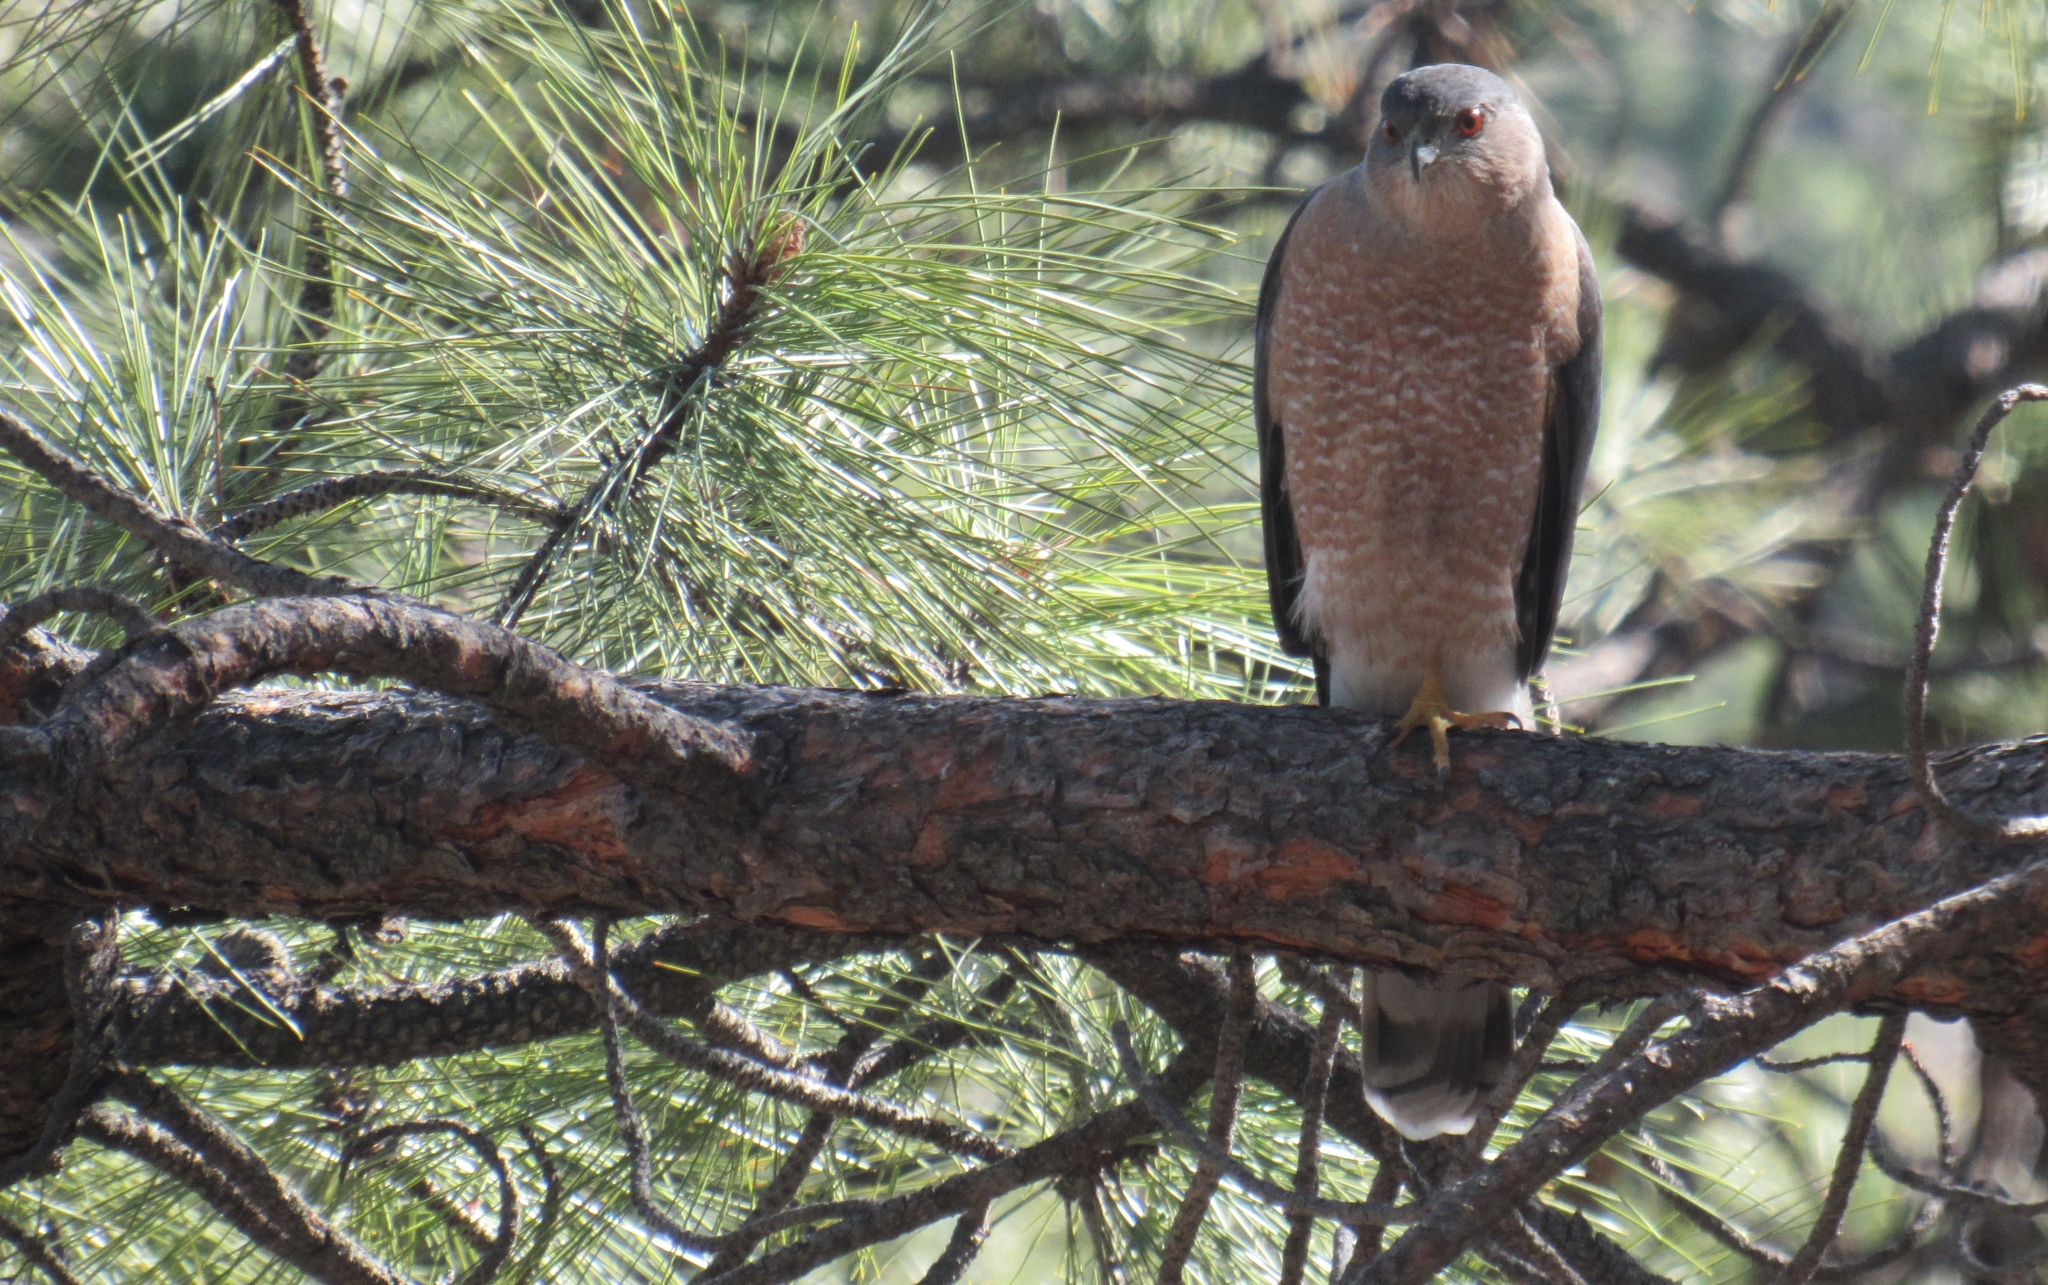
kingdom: Animalia
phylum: Chordata
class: Aves
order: Accipitriformes
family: Accipitridae
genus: Accipiter
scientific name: Accipiter cooperii
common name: Cooper's hawk
